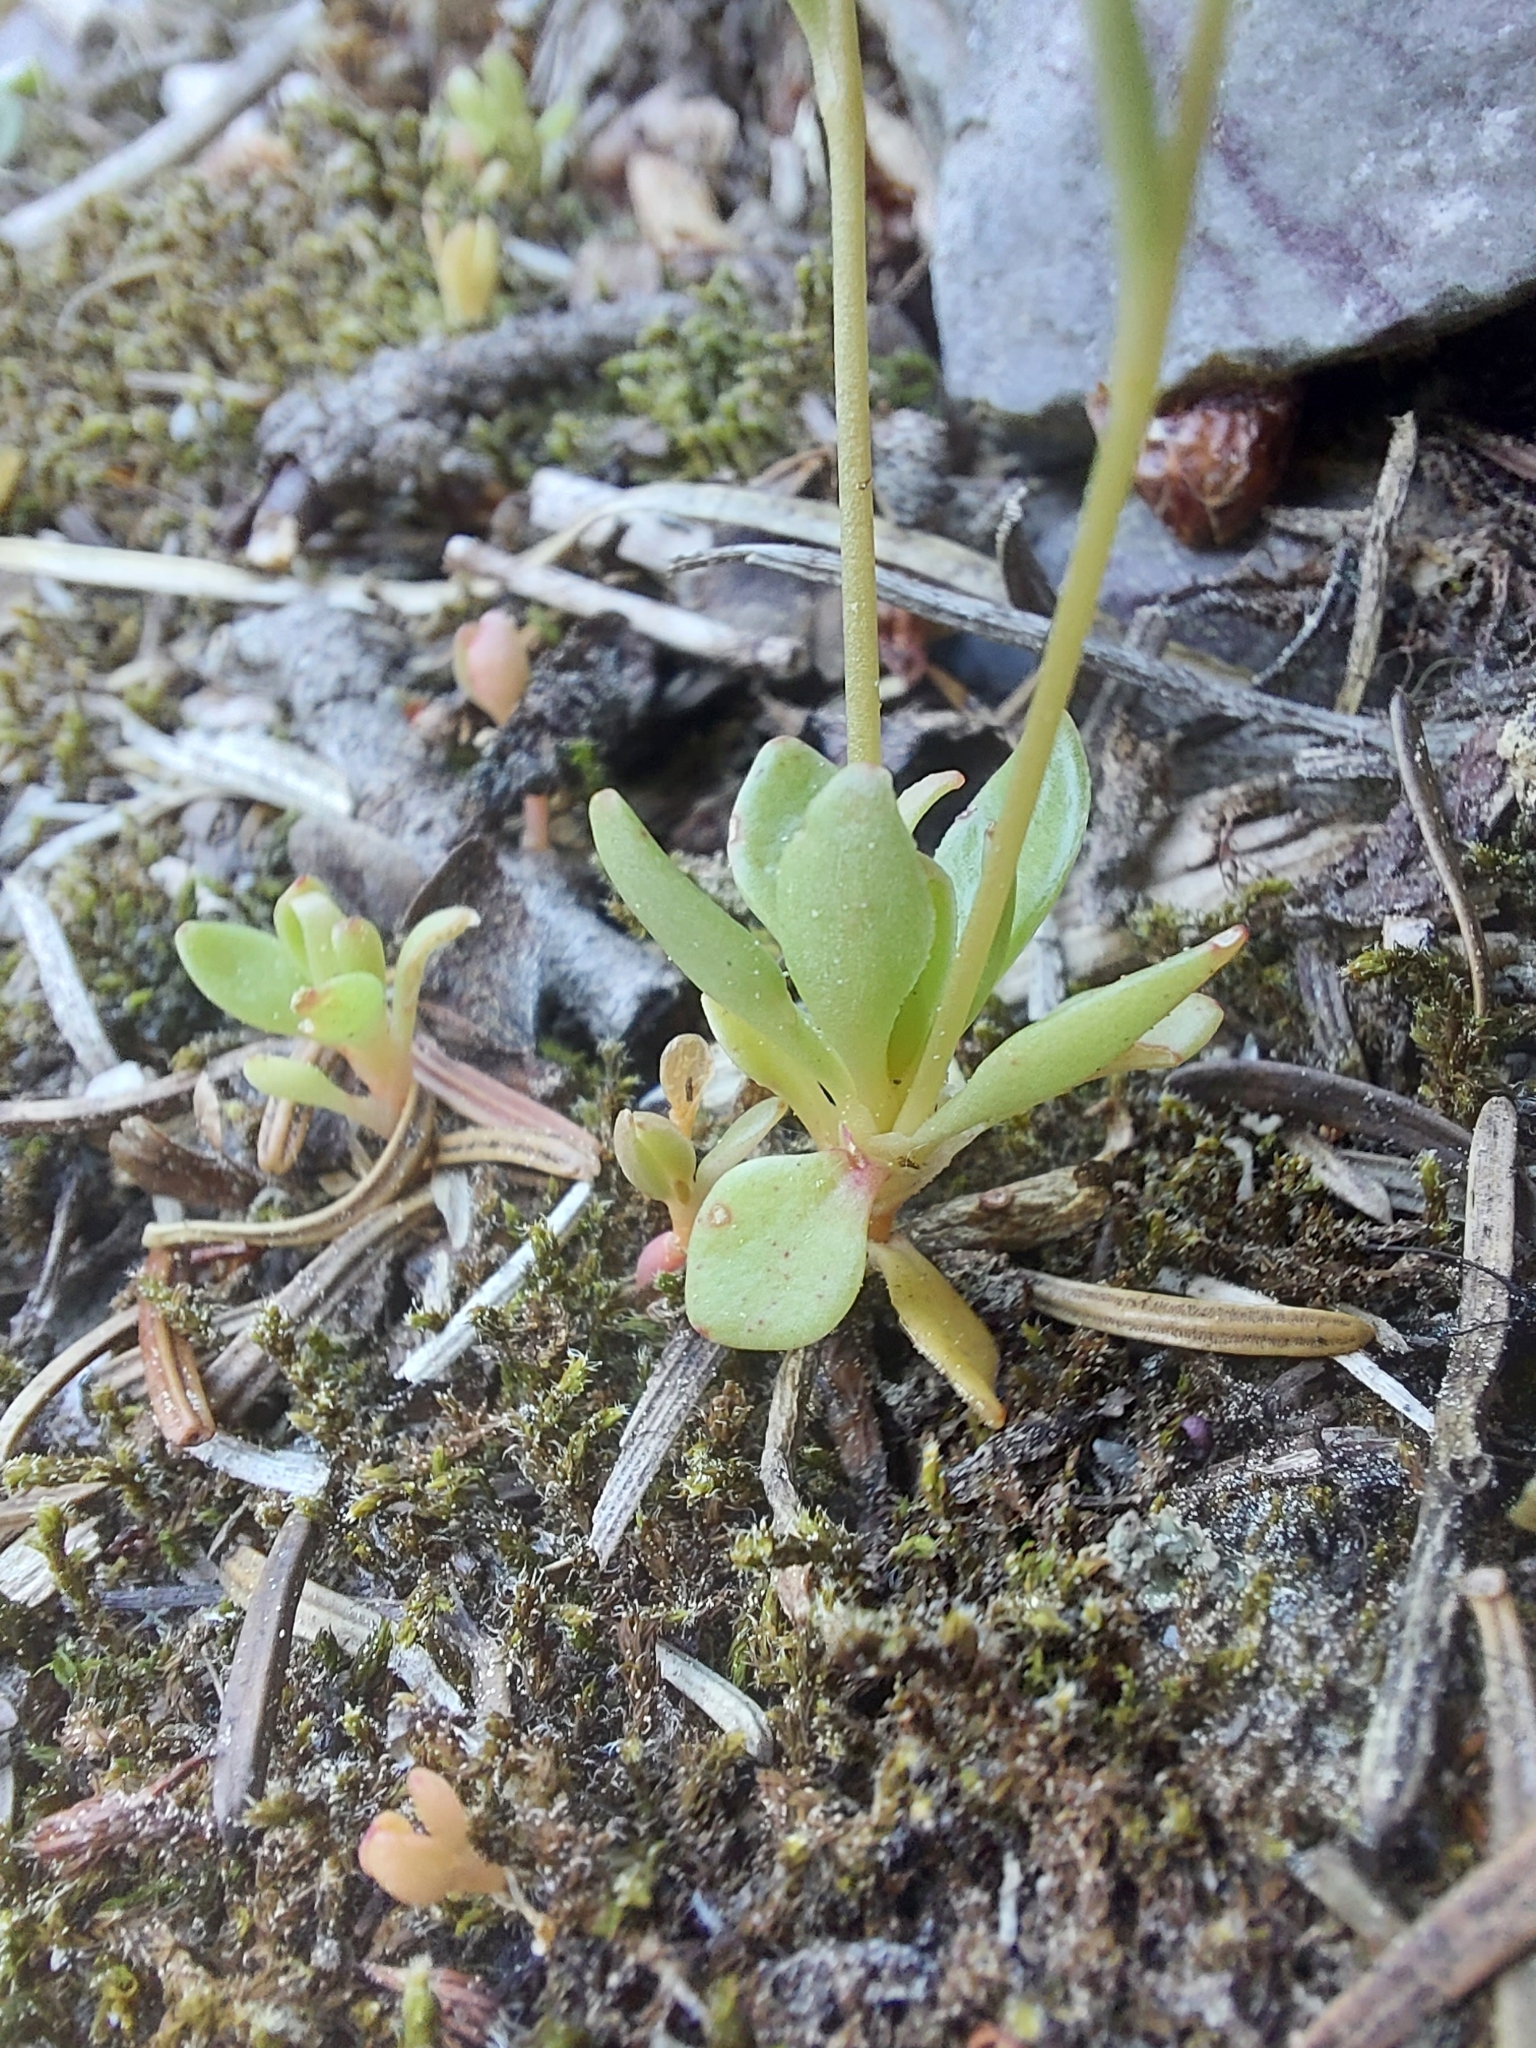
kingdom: Plantae
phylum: Tracheophyta
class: Magnoliopsida
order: Caryophyllales
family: Montiaceae
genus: Montia
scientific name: Montia parvifolia
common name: Small-leaved blinks
